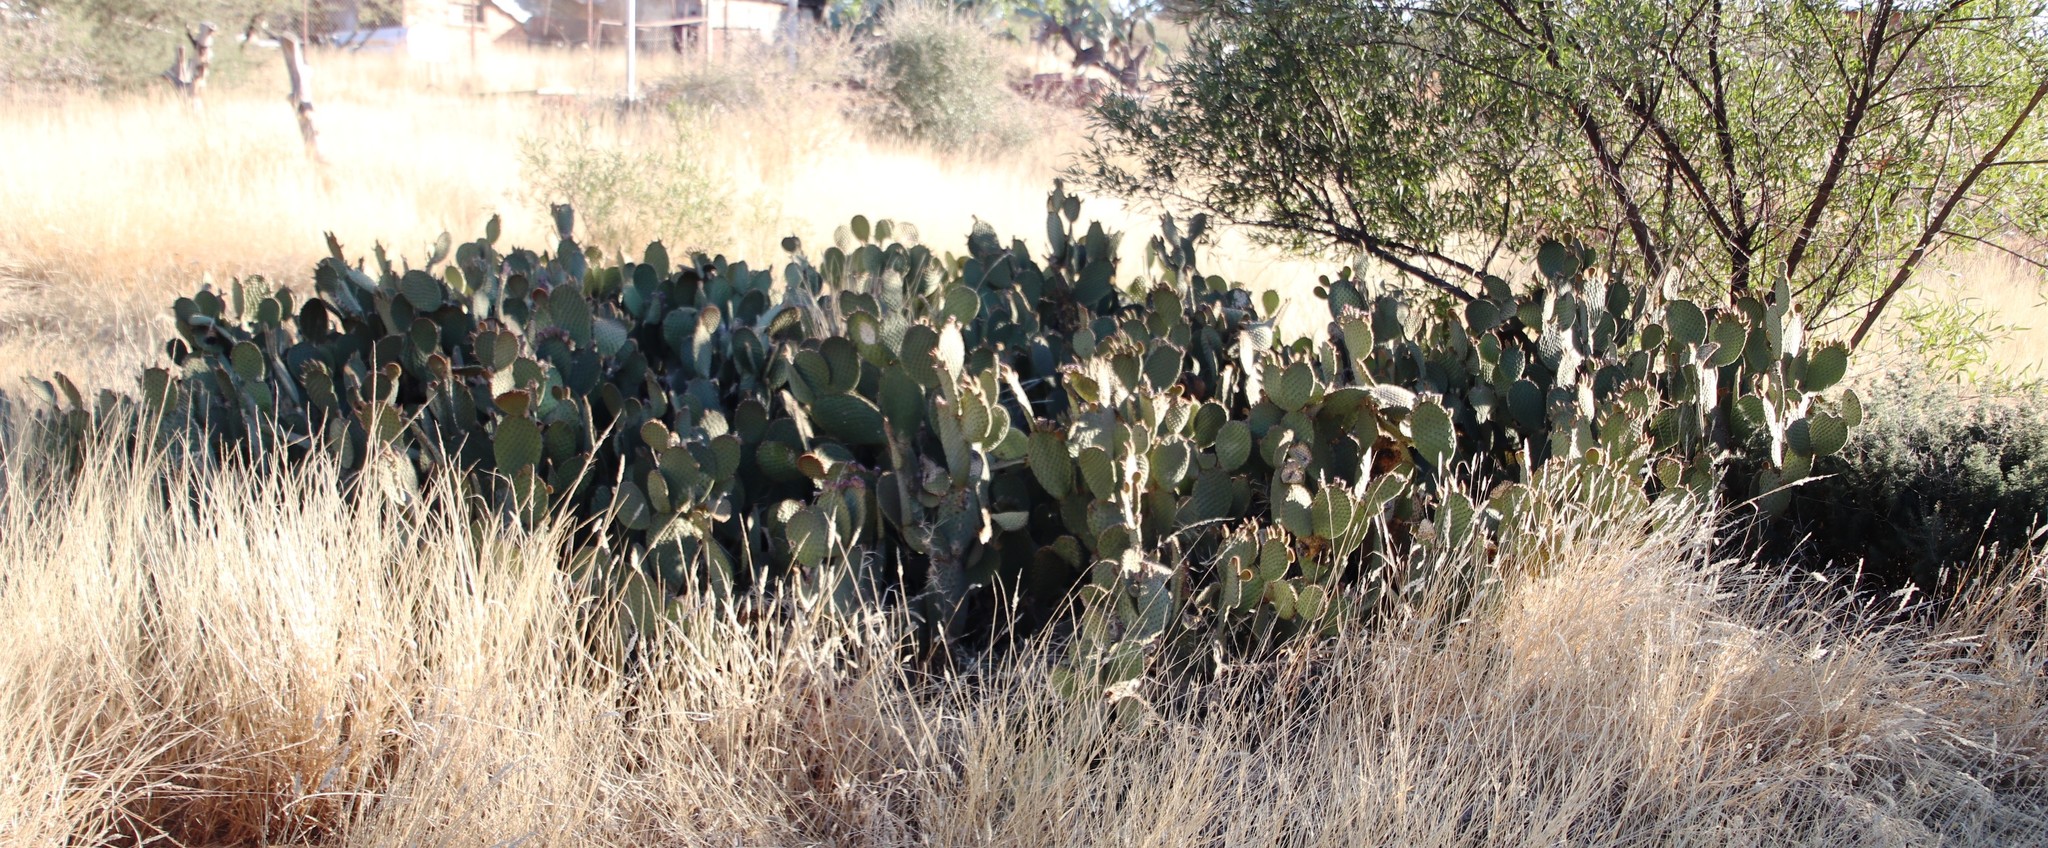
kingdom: Plantae
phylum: Tracheophyta
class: Magnoliopsida
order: Caryophyllales
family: Cactaceae
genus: Opuntia
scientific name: Opuntia microdasys
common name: Angel's-wings
